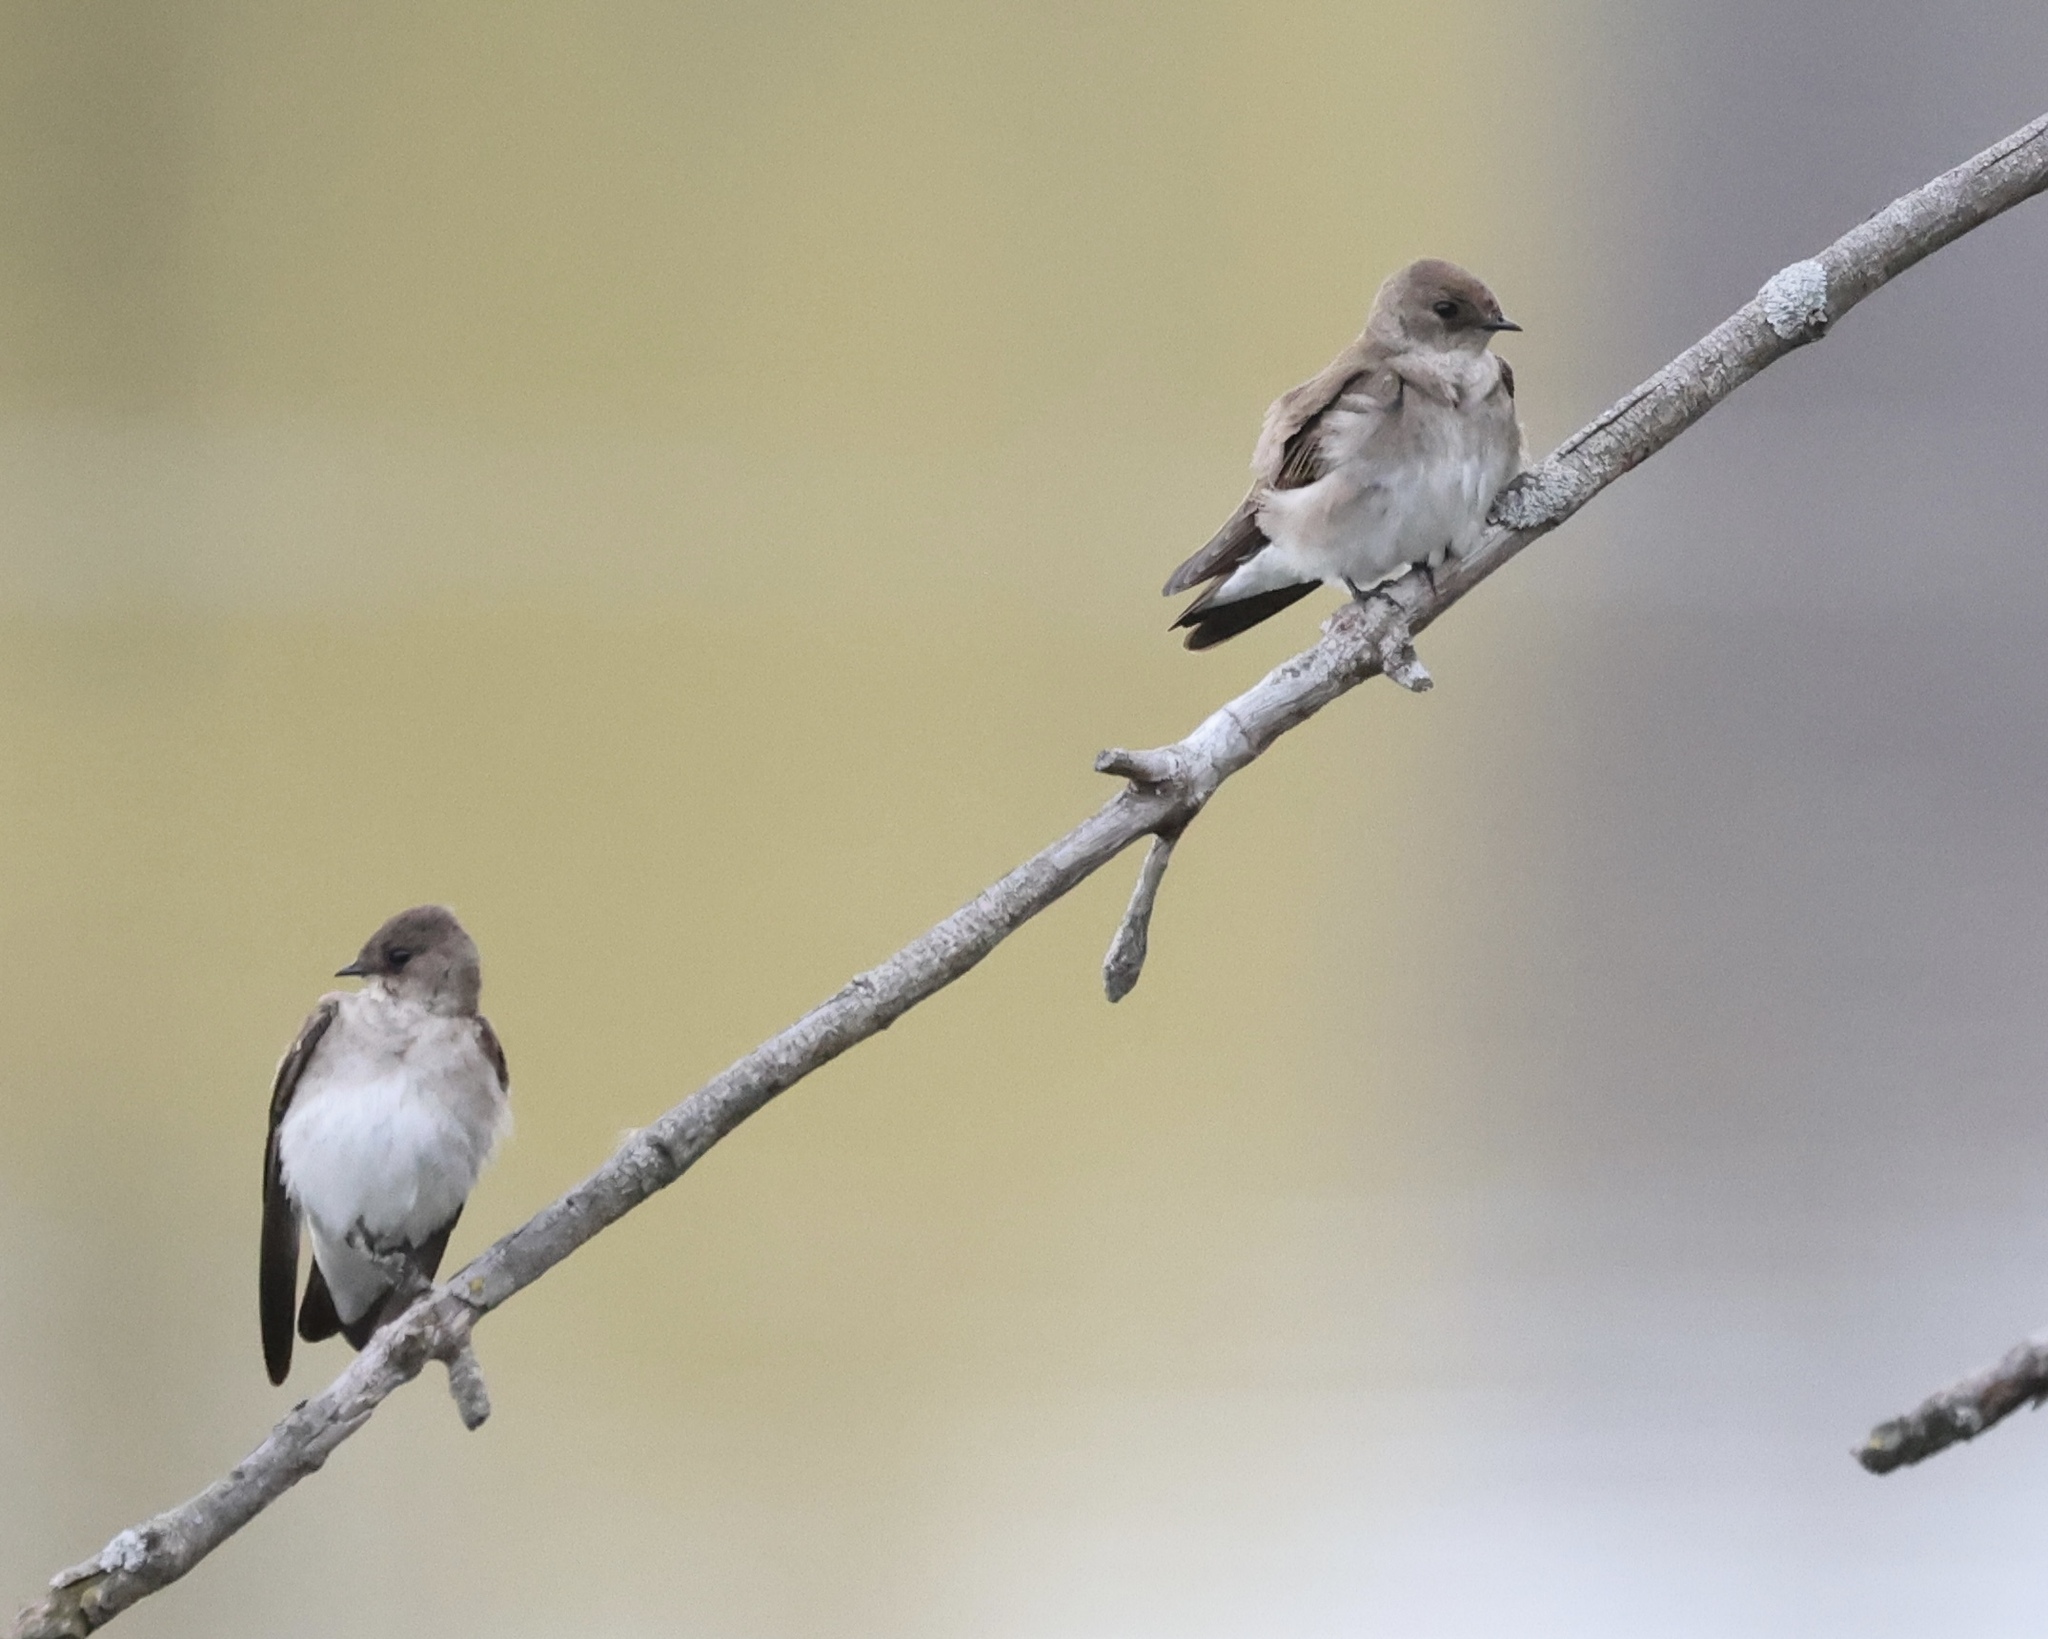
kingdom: Animalia
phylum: Chordata
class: Aves
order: Passeriformes
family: Hirundinidae
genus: Stelgidopteryx
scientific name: Stelgidopteryx serripennis
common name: Northern rough-winged swallow
